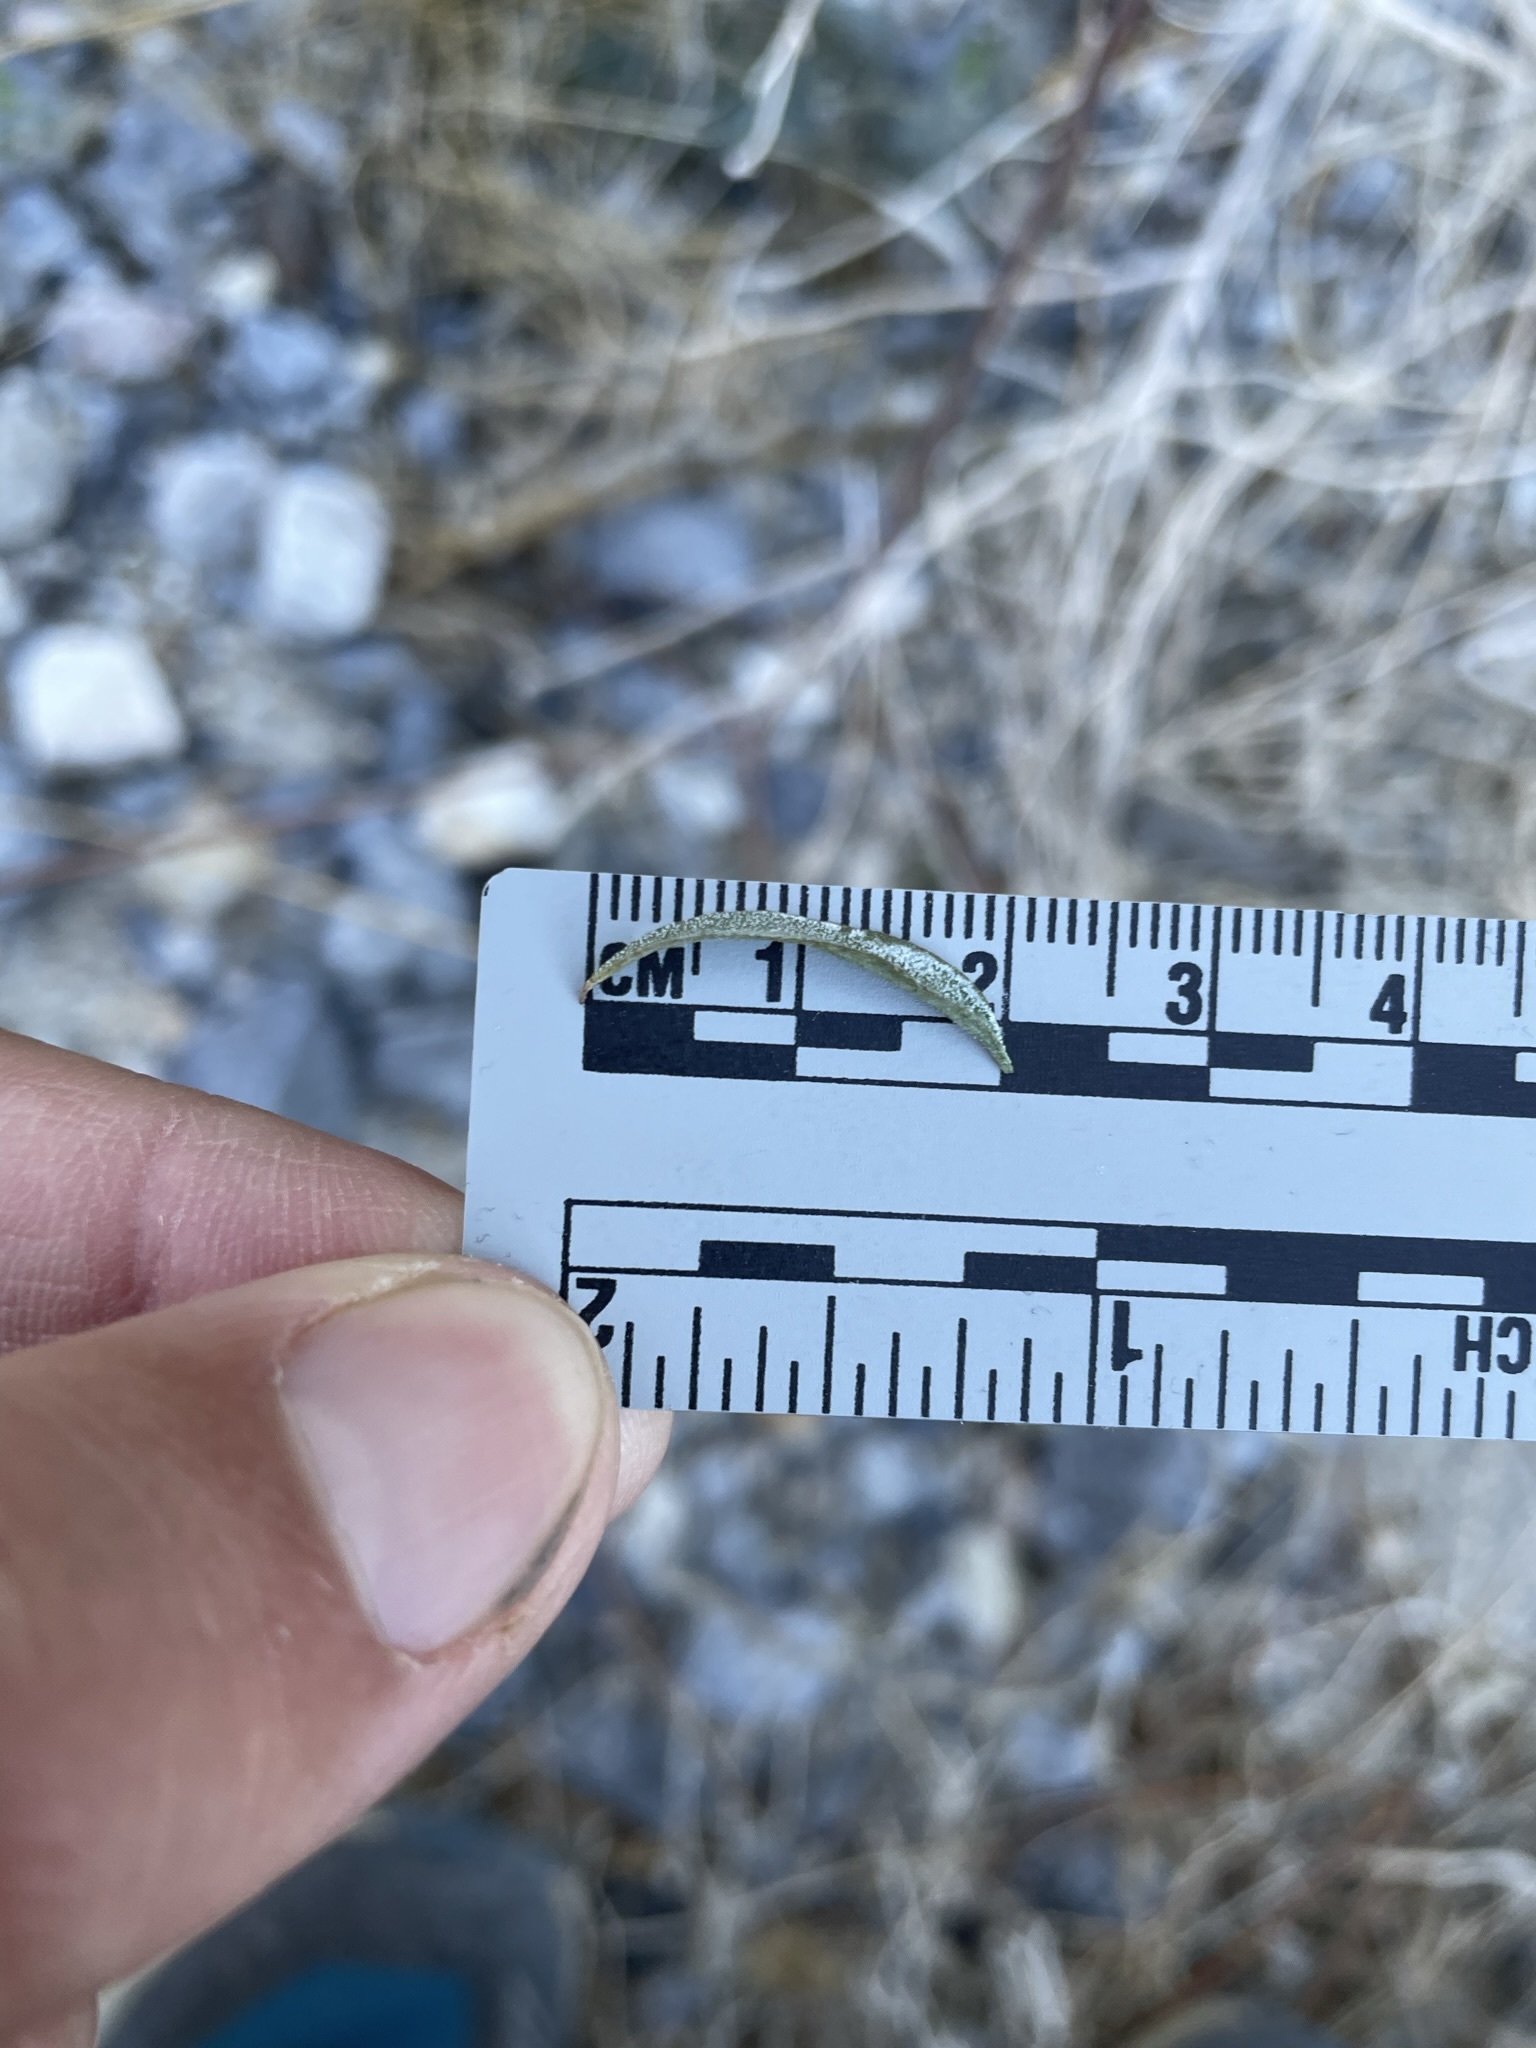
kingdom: Plantae
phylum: Tracheophyta
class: Magnoliopsida
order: Asterales
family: Asteraceae
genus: Brickellia
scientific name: Brickellia longifolia
